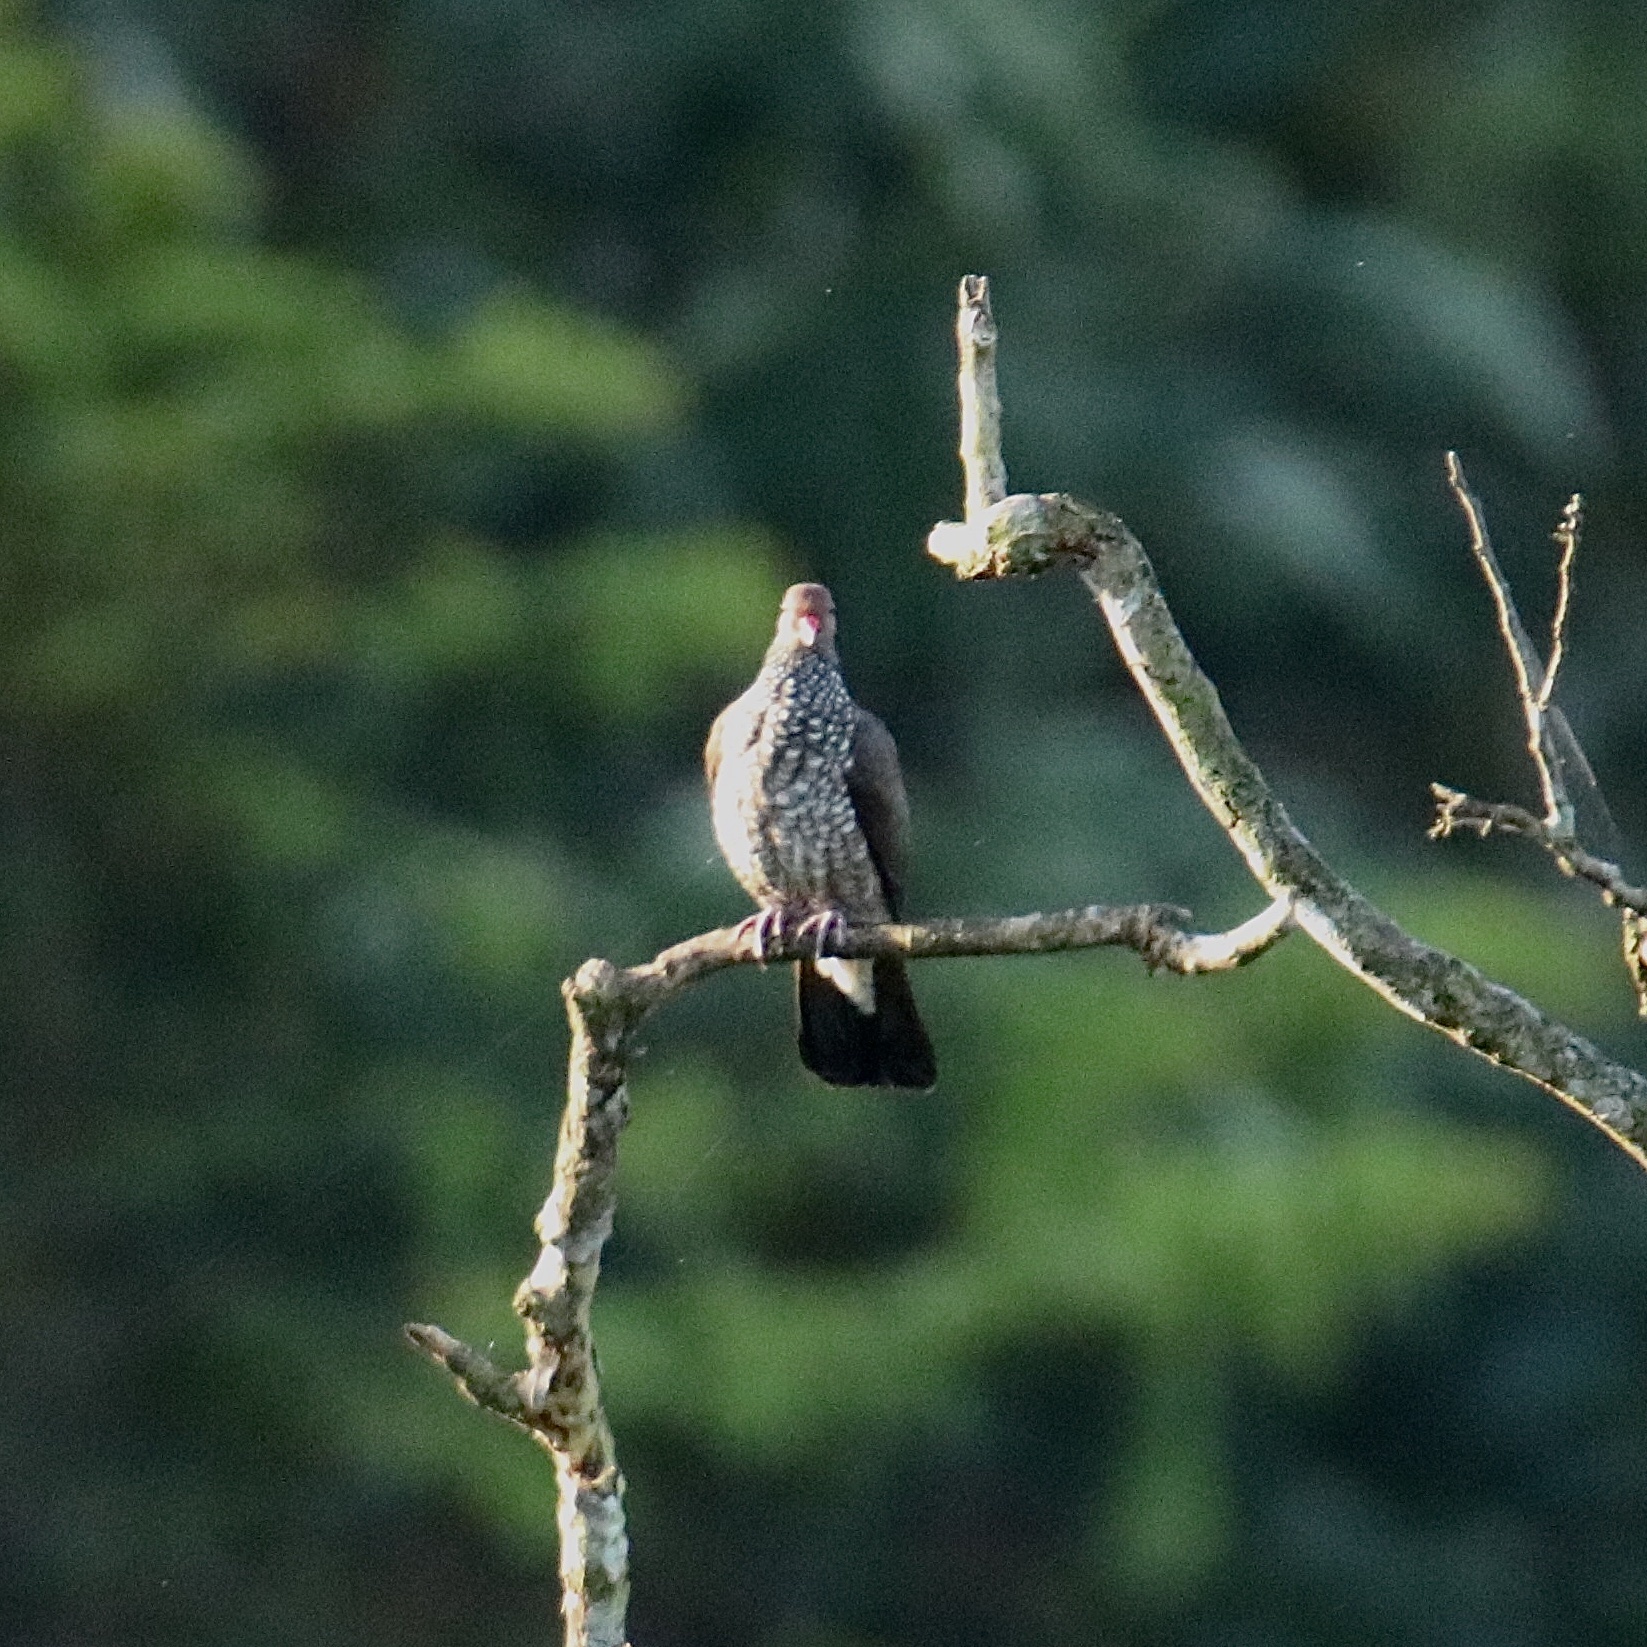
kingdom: Animalia
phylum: Chordata
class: Aves
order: Columbiformes
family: Columbidae
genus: Patagioenas
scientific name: Patagioenas speciosa
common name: Scaled pigeon
